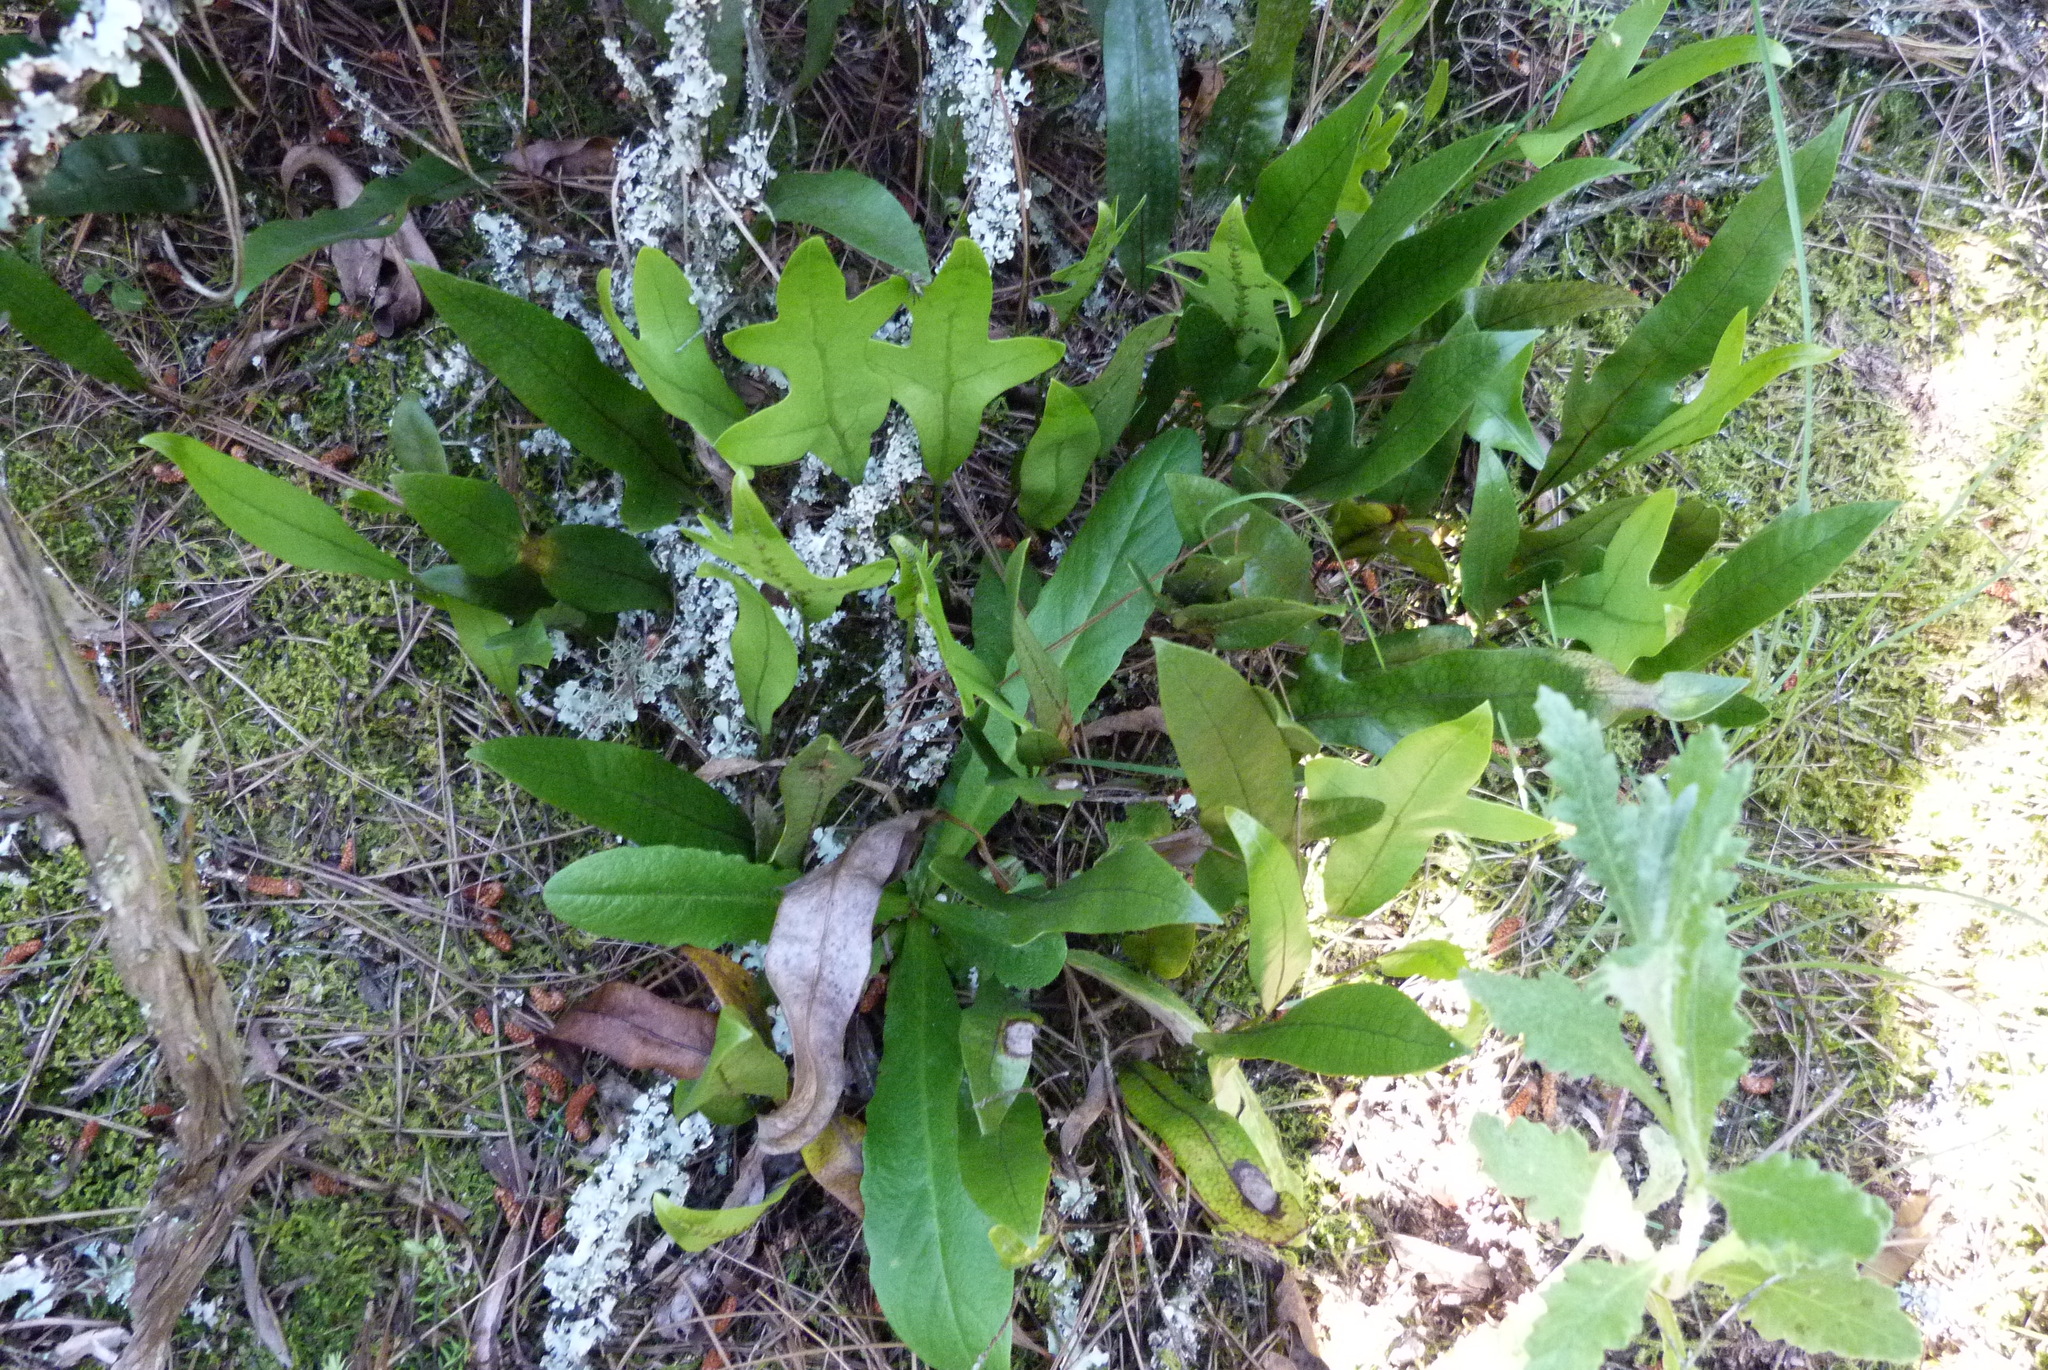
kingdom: Plantae
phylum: Tracheophyta
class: Polypodiopsida
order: Polypodiales
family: Polypodiaceae
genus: Lecanopteris
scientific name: Lecanopteris pustulata
